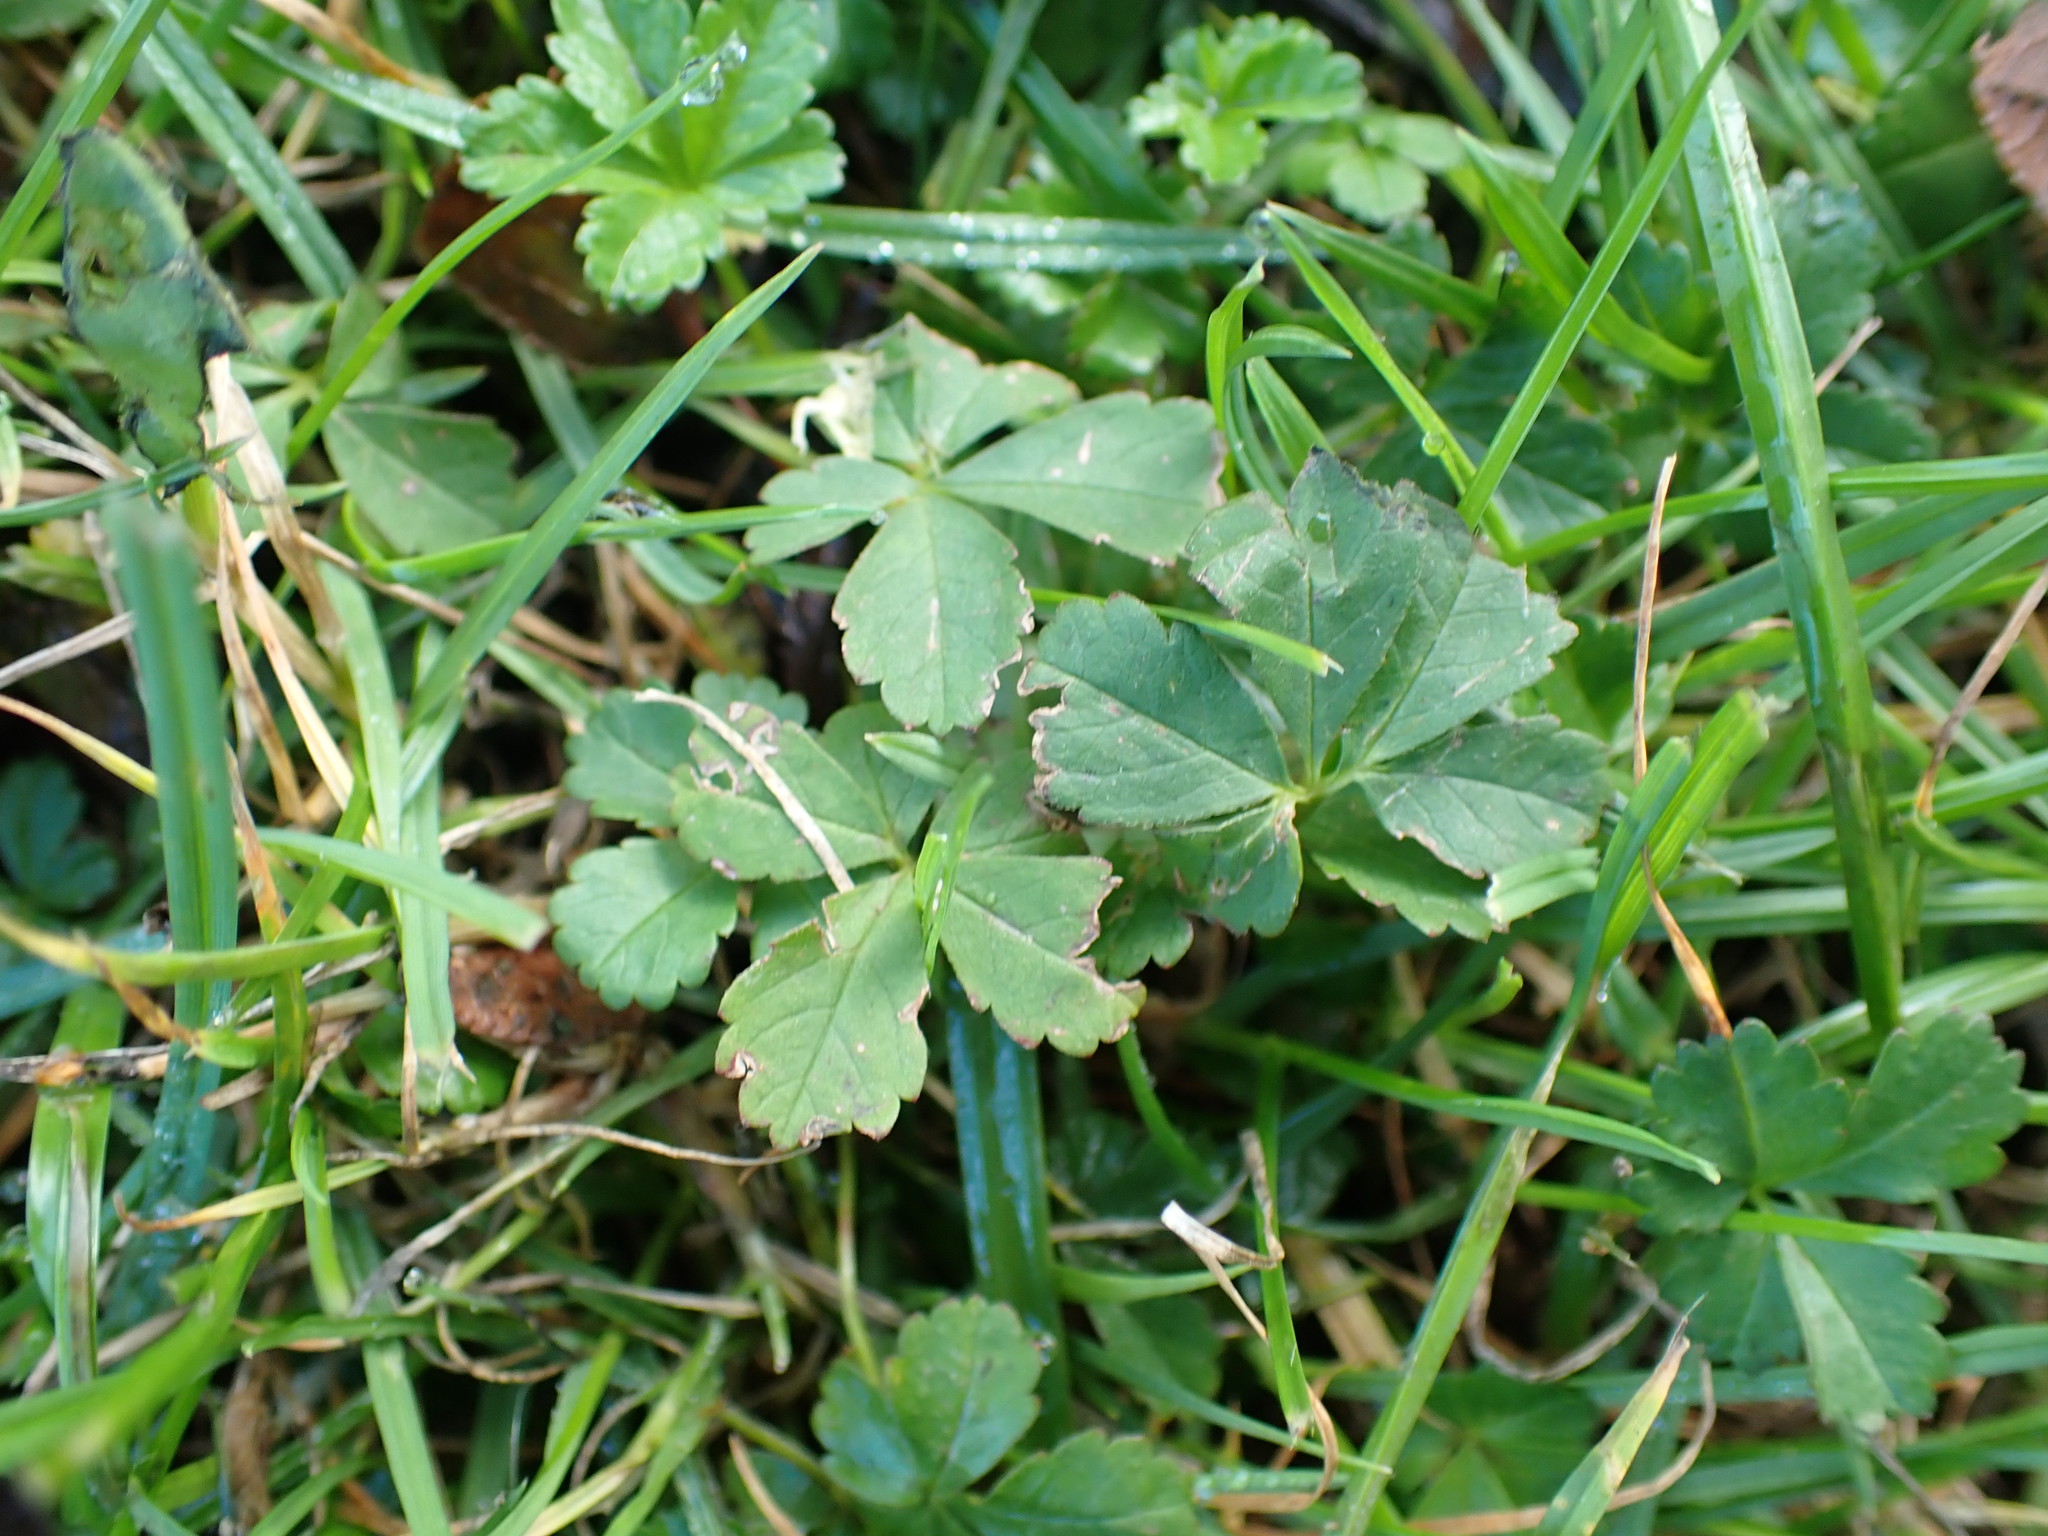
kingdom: Plantae
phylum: Tracheophyta
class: Magnoliopsida
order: Rosales
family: Rosaceae
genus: Potentilla
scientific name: Potentilla reptans
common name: Creeping cinquefoil
